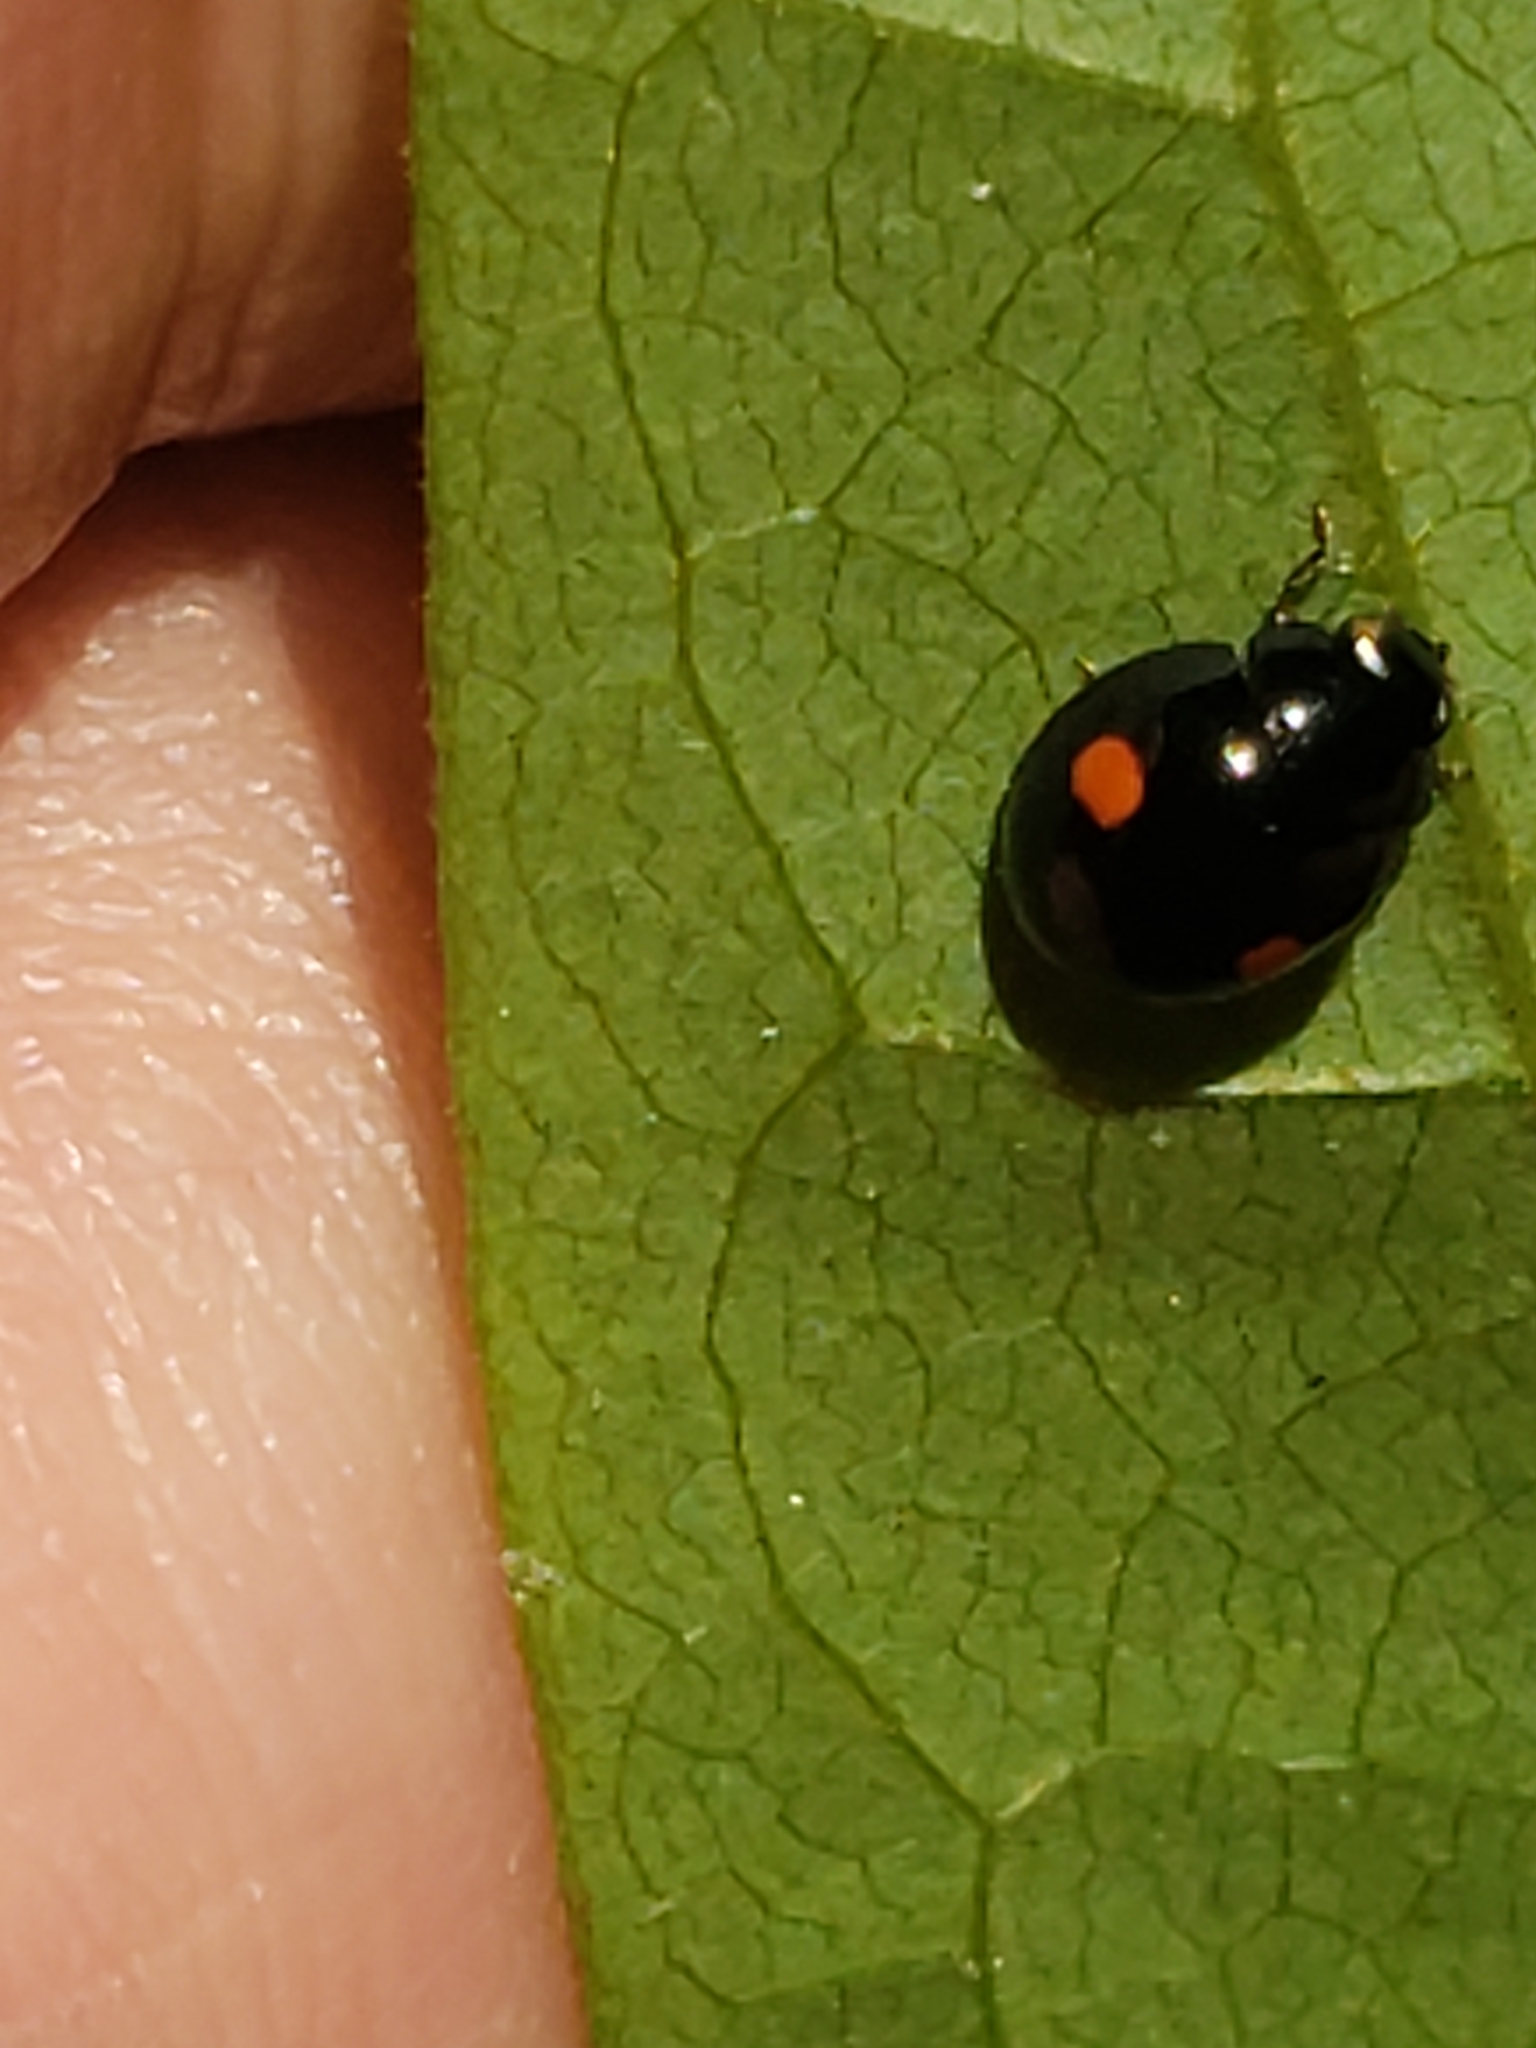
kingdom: Animalia
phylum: Arthropoda
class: Insecta
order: Coleoptera
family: Coccinellidae
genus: Hyperaspis
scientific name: Hyperaspis
